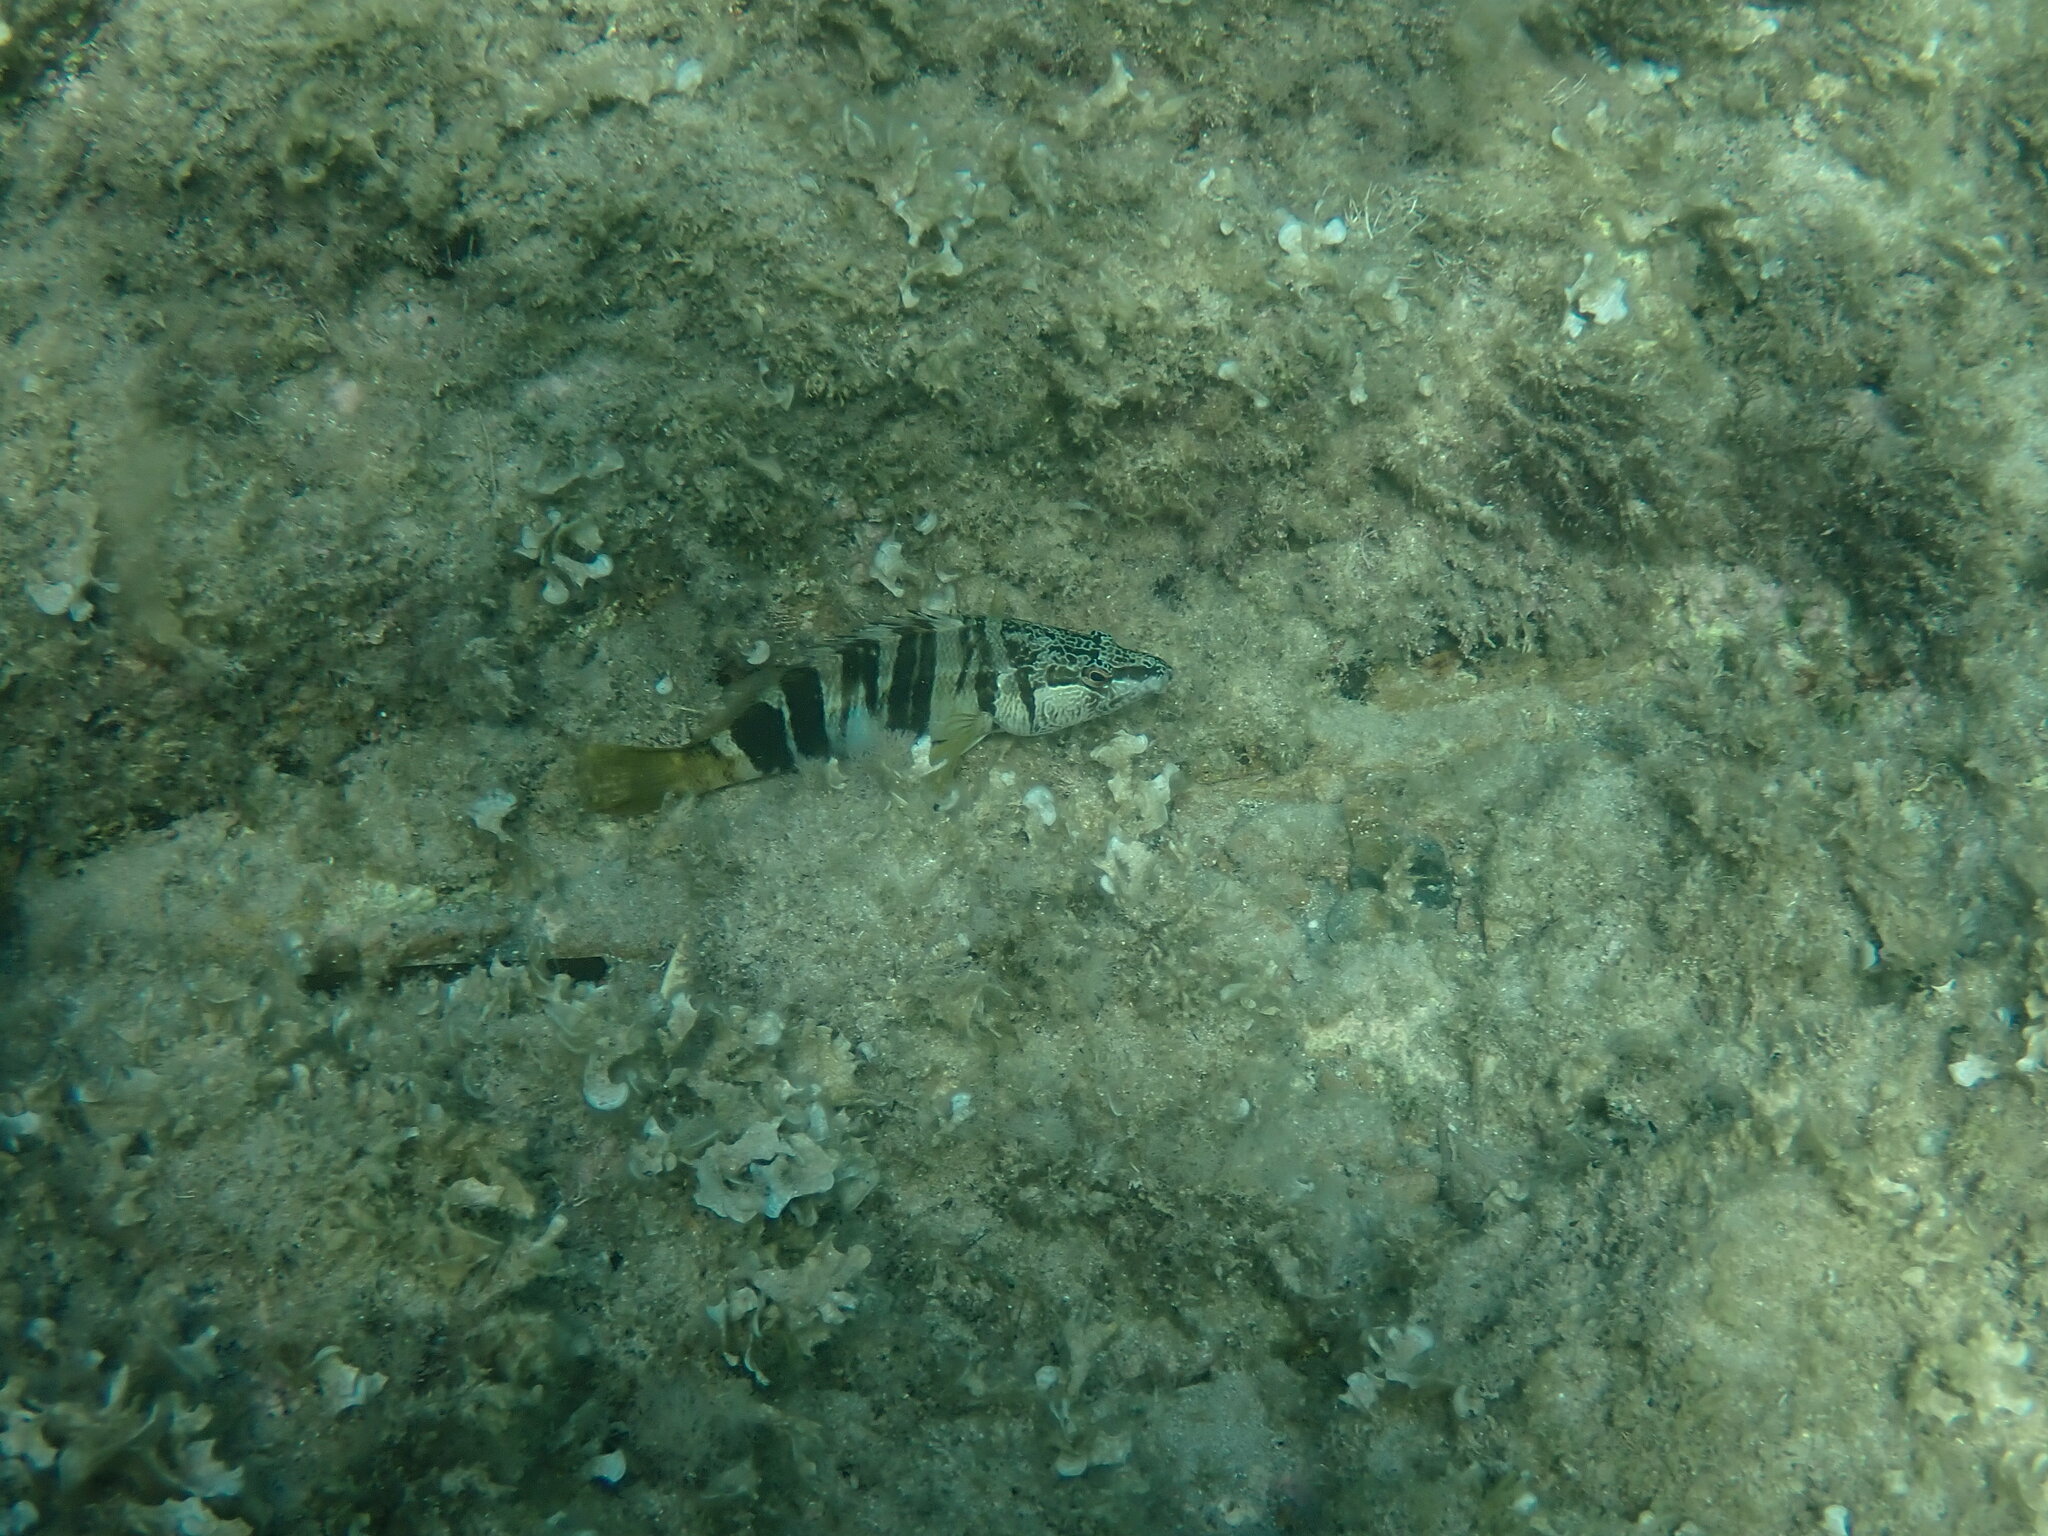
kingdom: Animalia
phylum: Chordata
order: Perciformes
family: Serranidae
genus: Serranus
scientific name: Serranus scriba
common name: Painted comber
